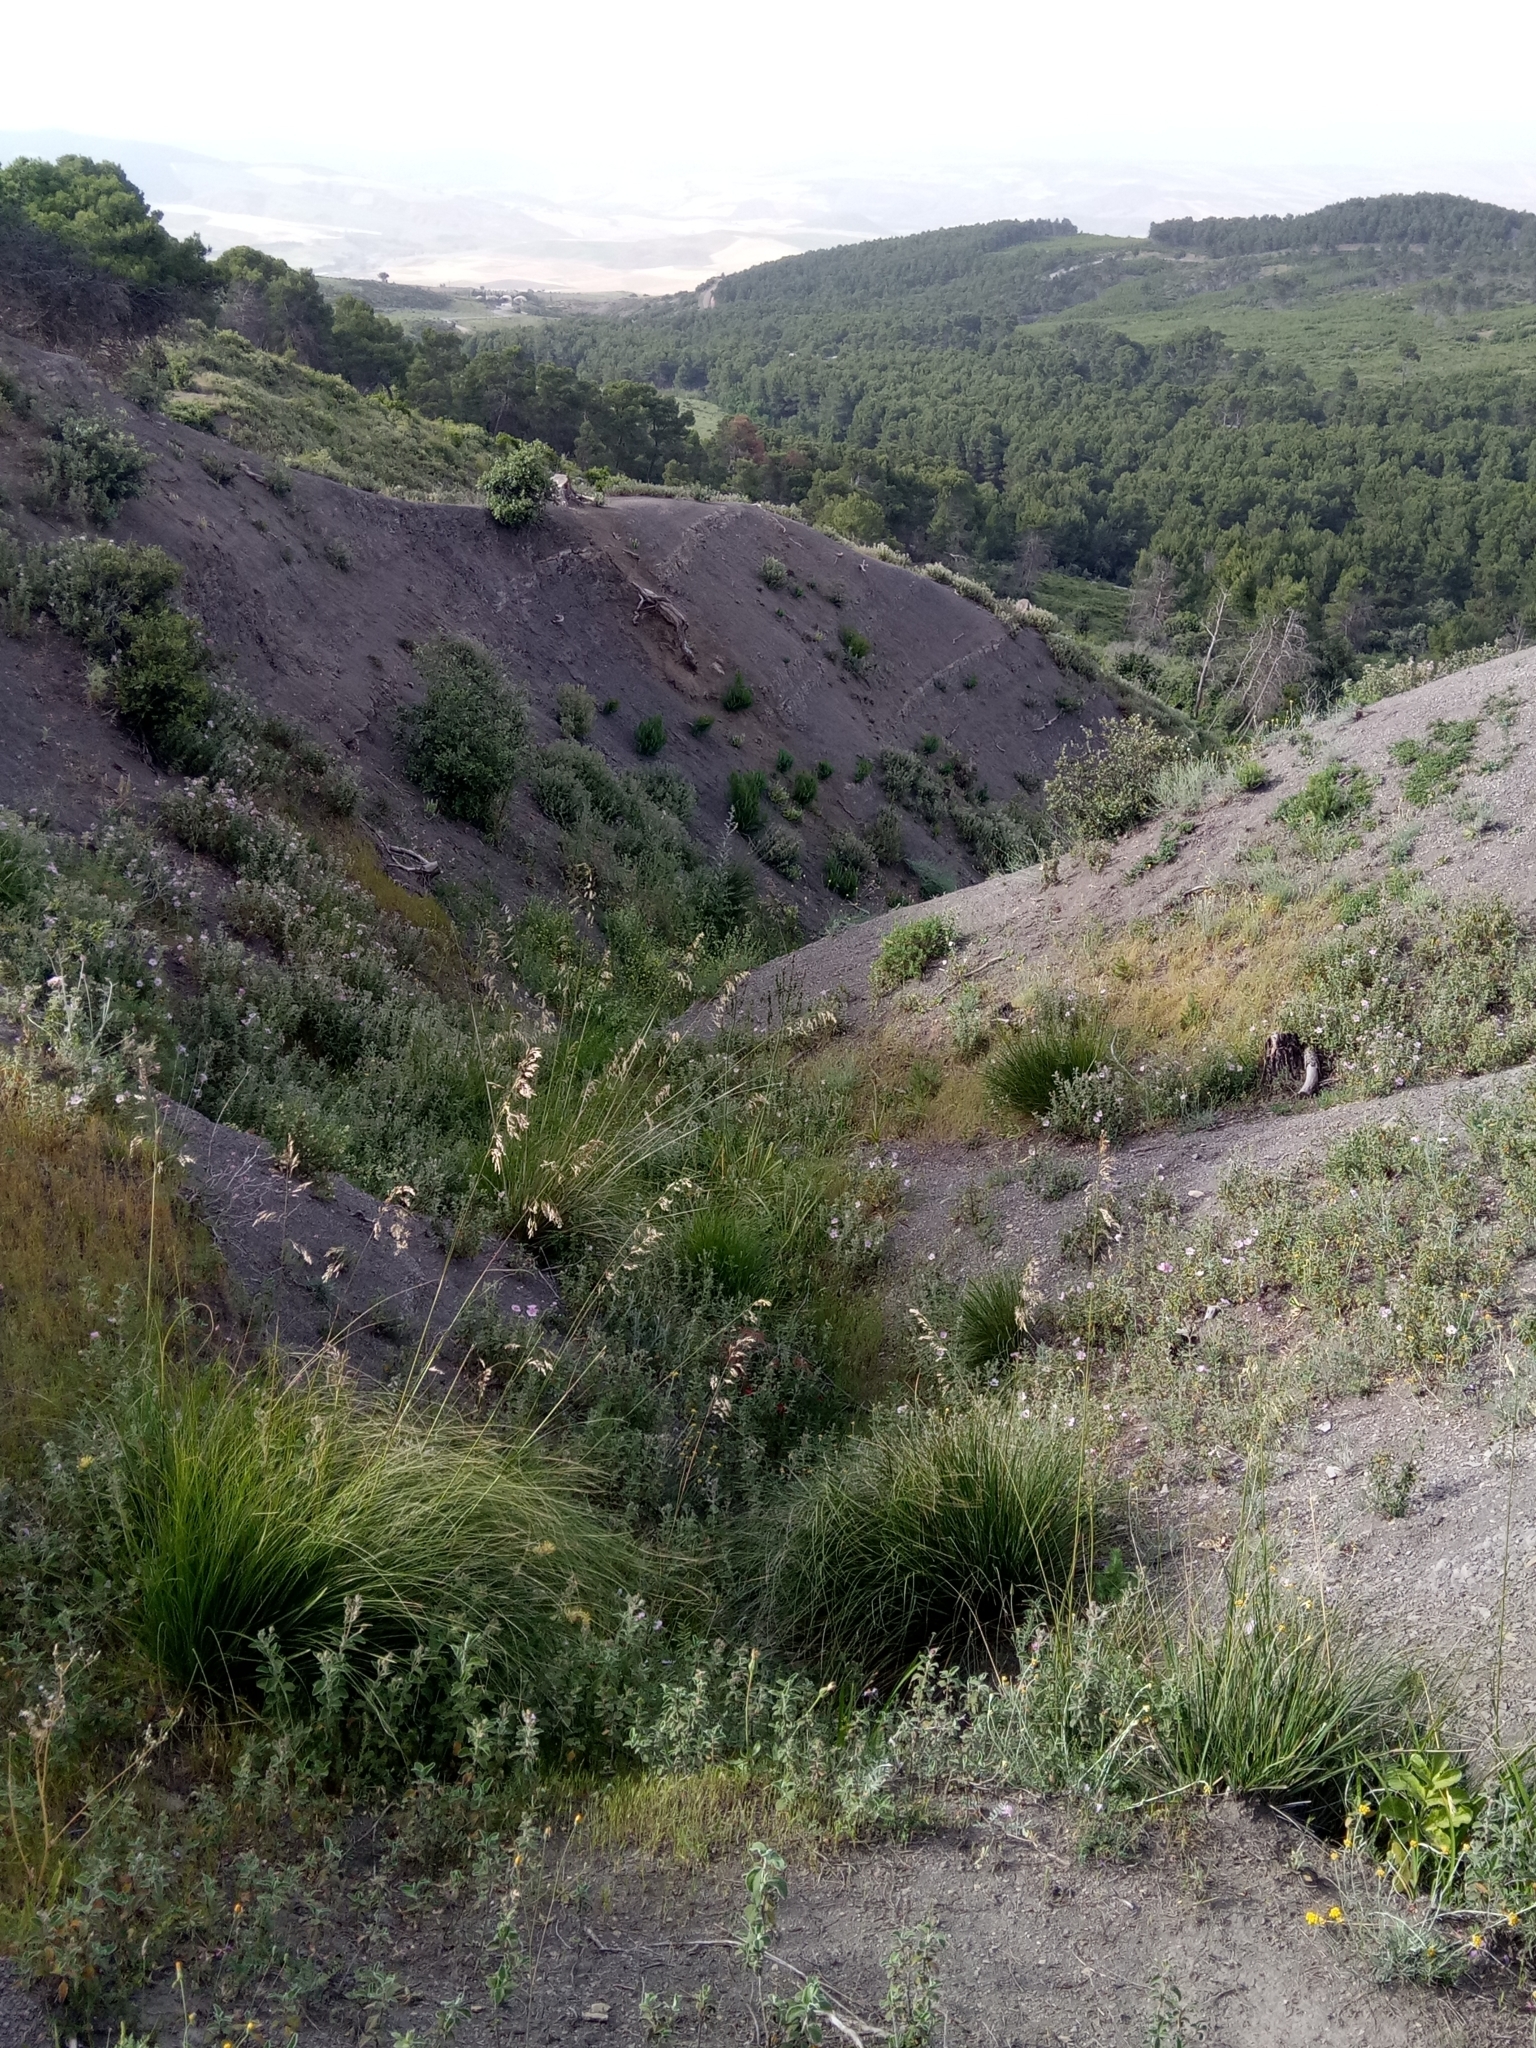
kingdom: Plantae
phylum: Tracheophyta
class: Liliopsida
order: Asparagales
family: Orchidaceae
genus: Ophrys
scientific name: Ophrys battandieri
